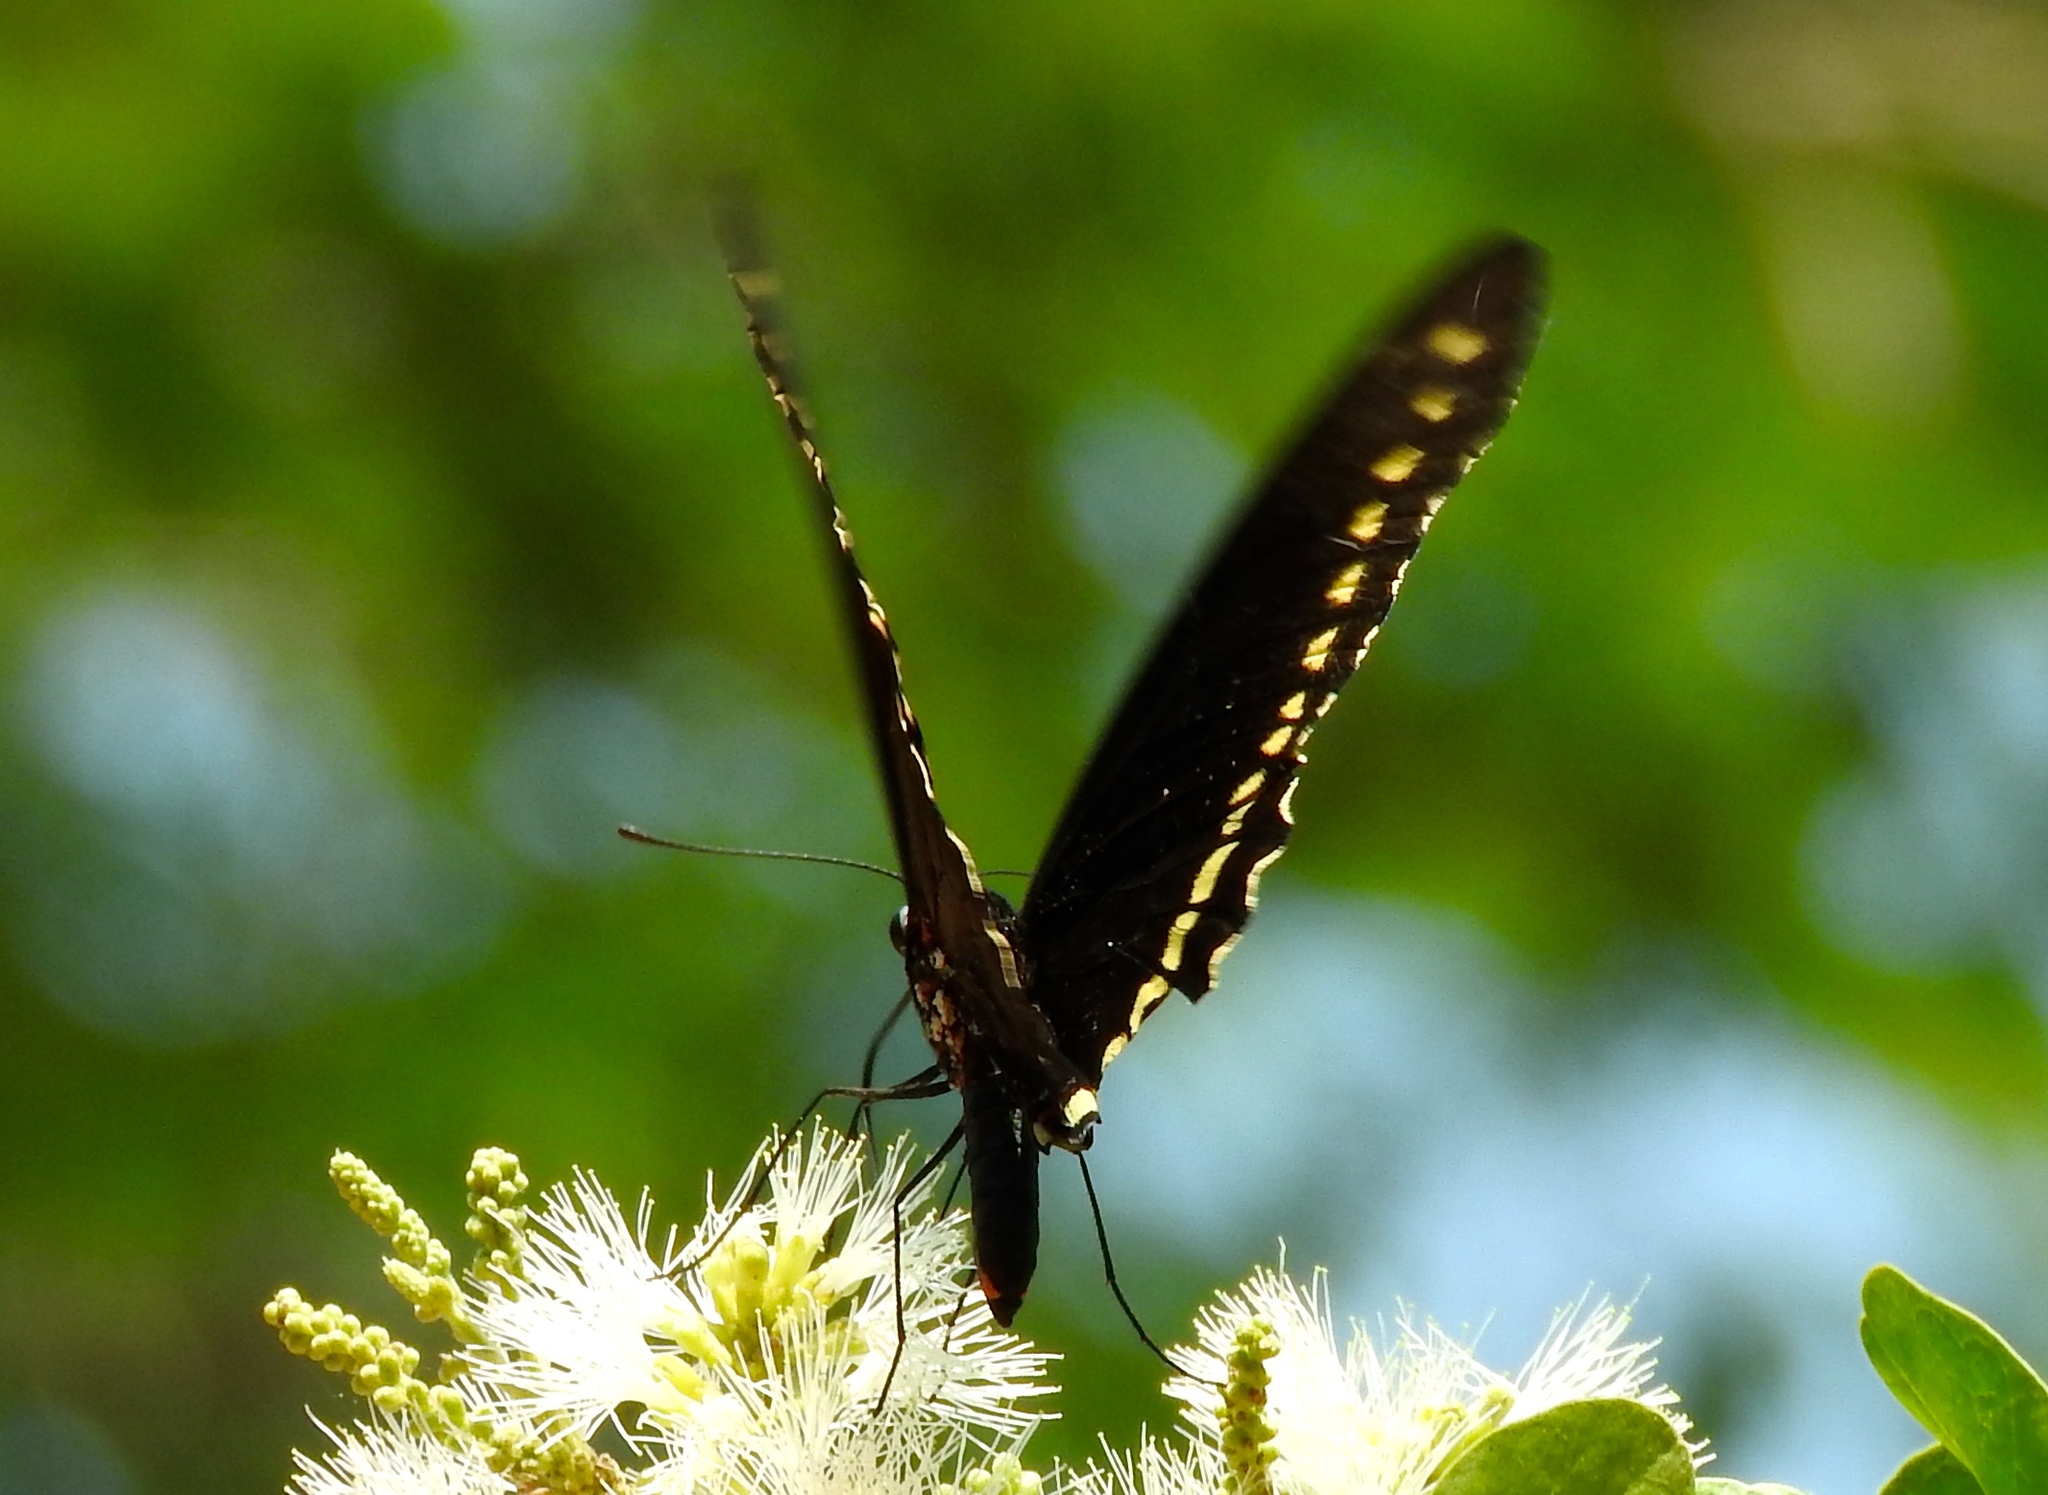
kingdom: Animalia
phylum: Arthropoda
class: Insecta
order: Lepidoptera
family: Papilionidae
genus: Battus
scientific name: Battus polydamas
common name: Polydamas swallowtail
